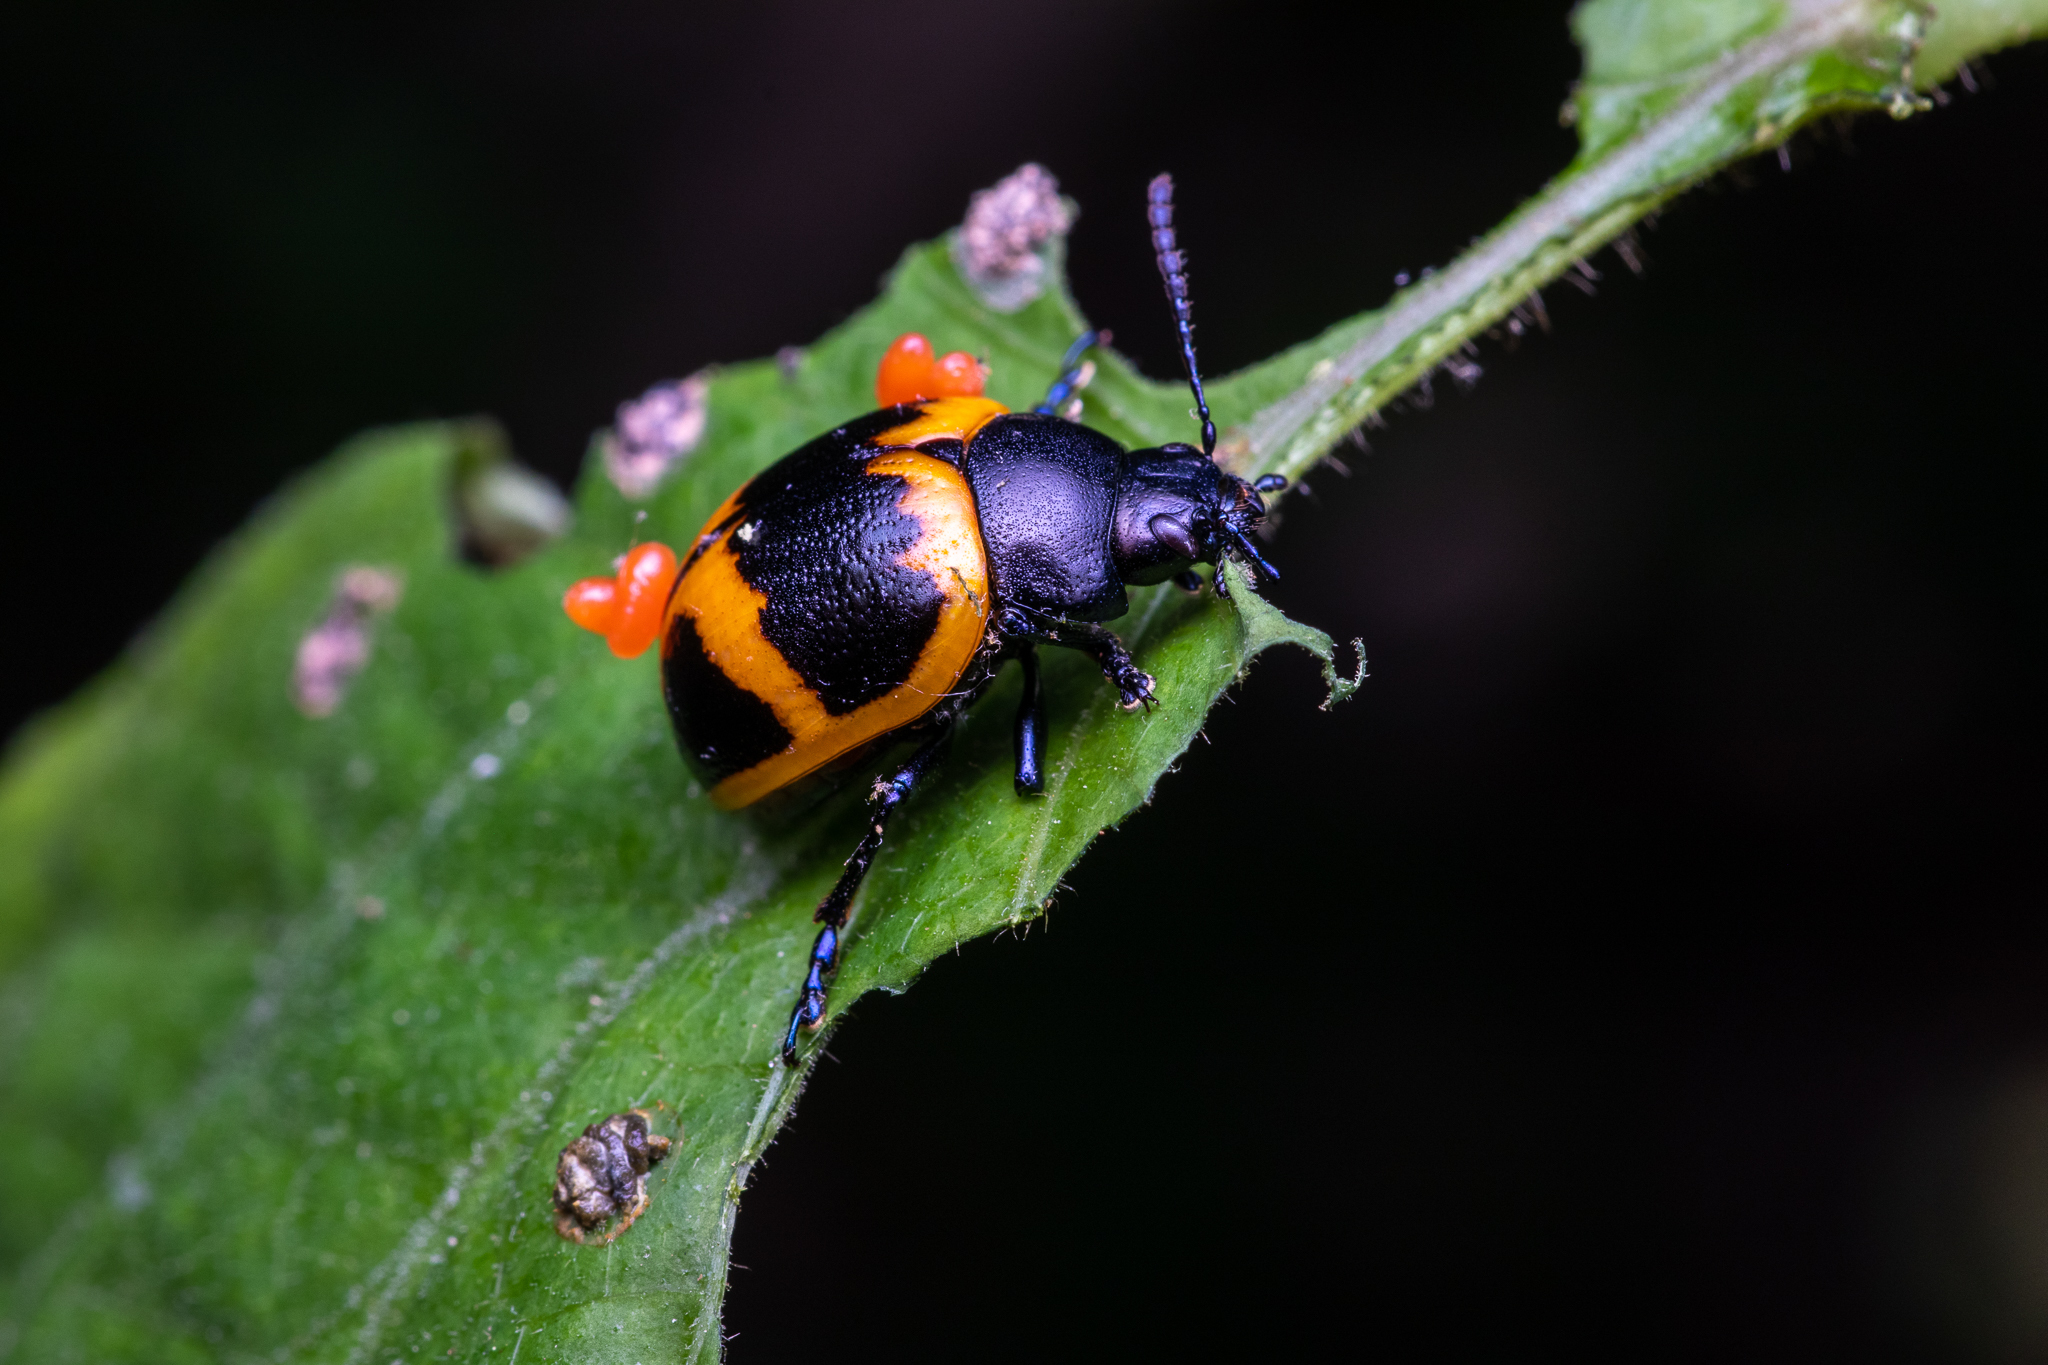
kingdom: Animalia
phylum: Arthropoda
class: Insecta
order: Coleoptera
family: Chrysomelidae
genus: Labidomera
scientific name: Labidomera clivicollis
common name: Swamp milkweed leaf beetle
